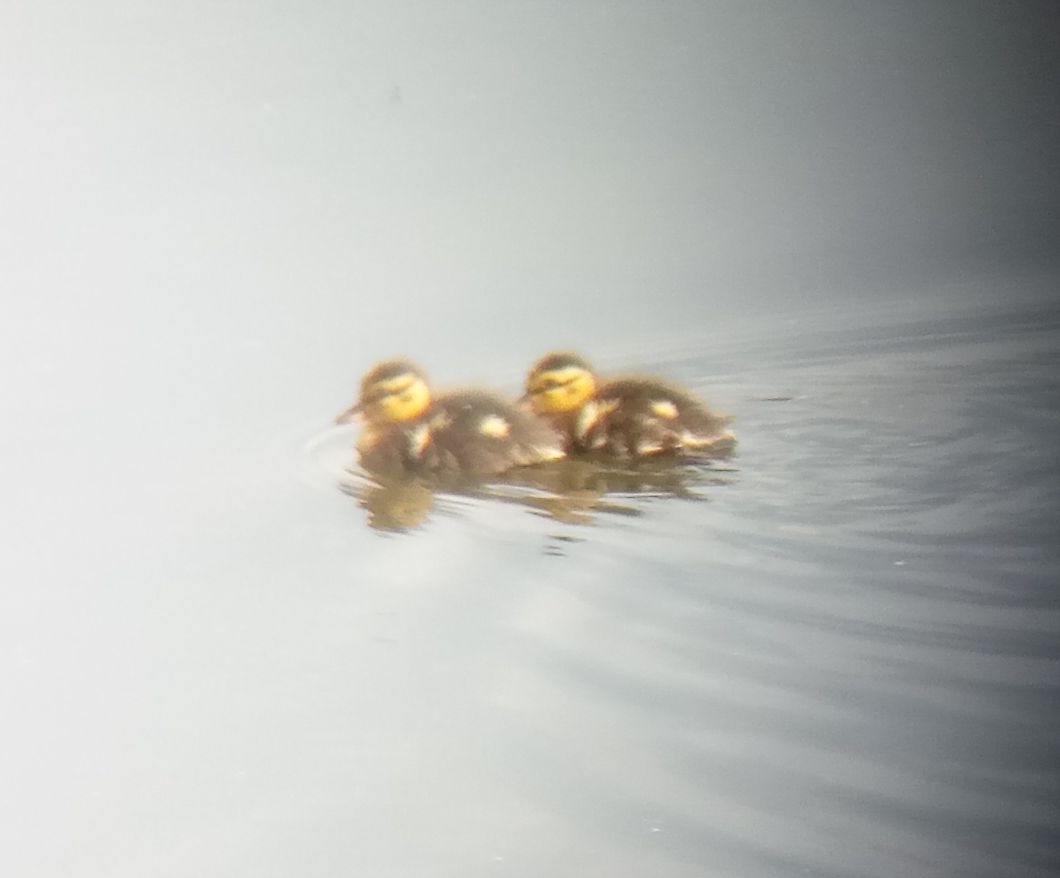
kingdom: Animalia
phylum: Chordata
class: Aves
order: Anseriformes
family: Anatidae
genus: Anas
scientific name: Anas platyrhynchos
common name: Mallard
